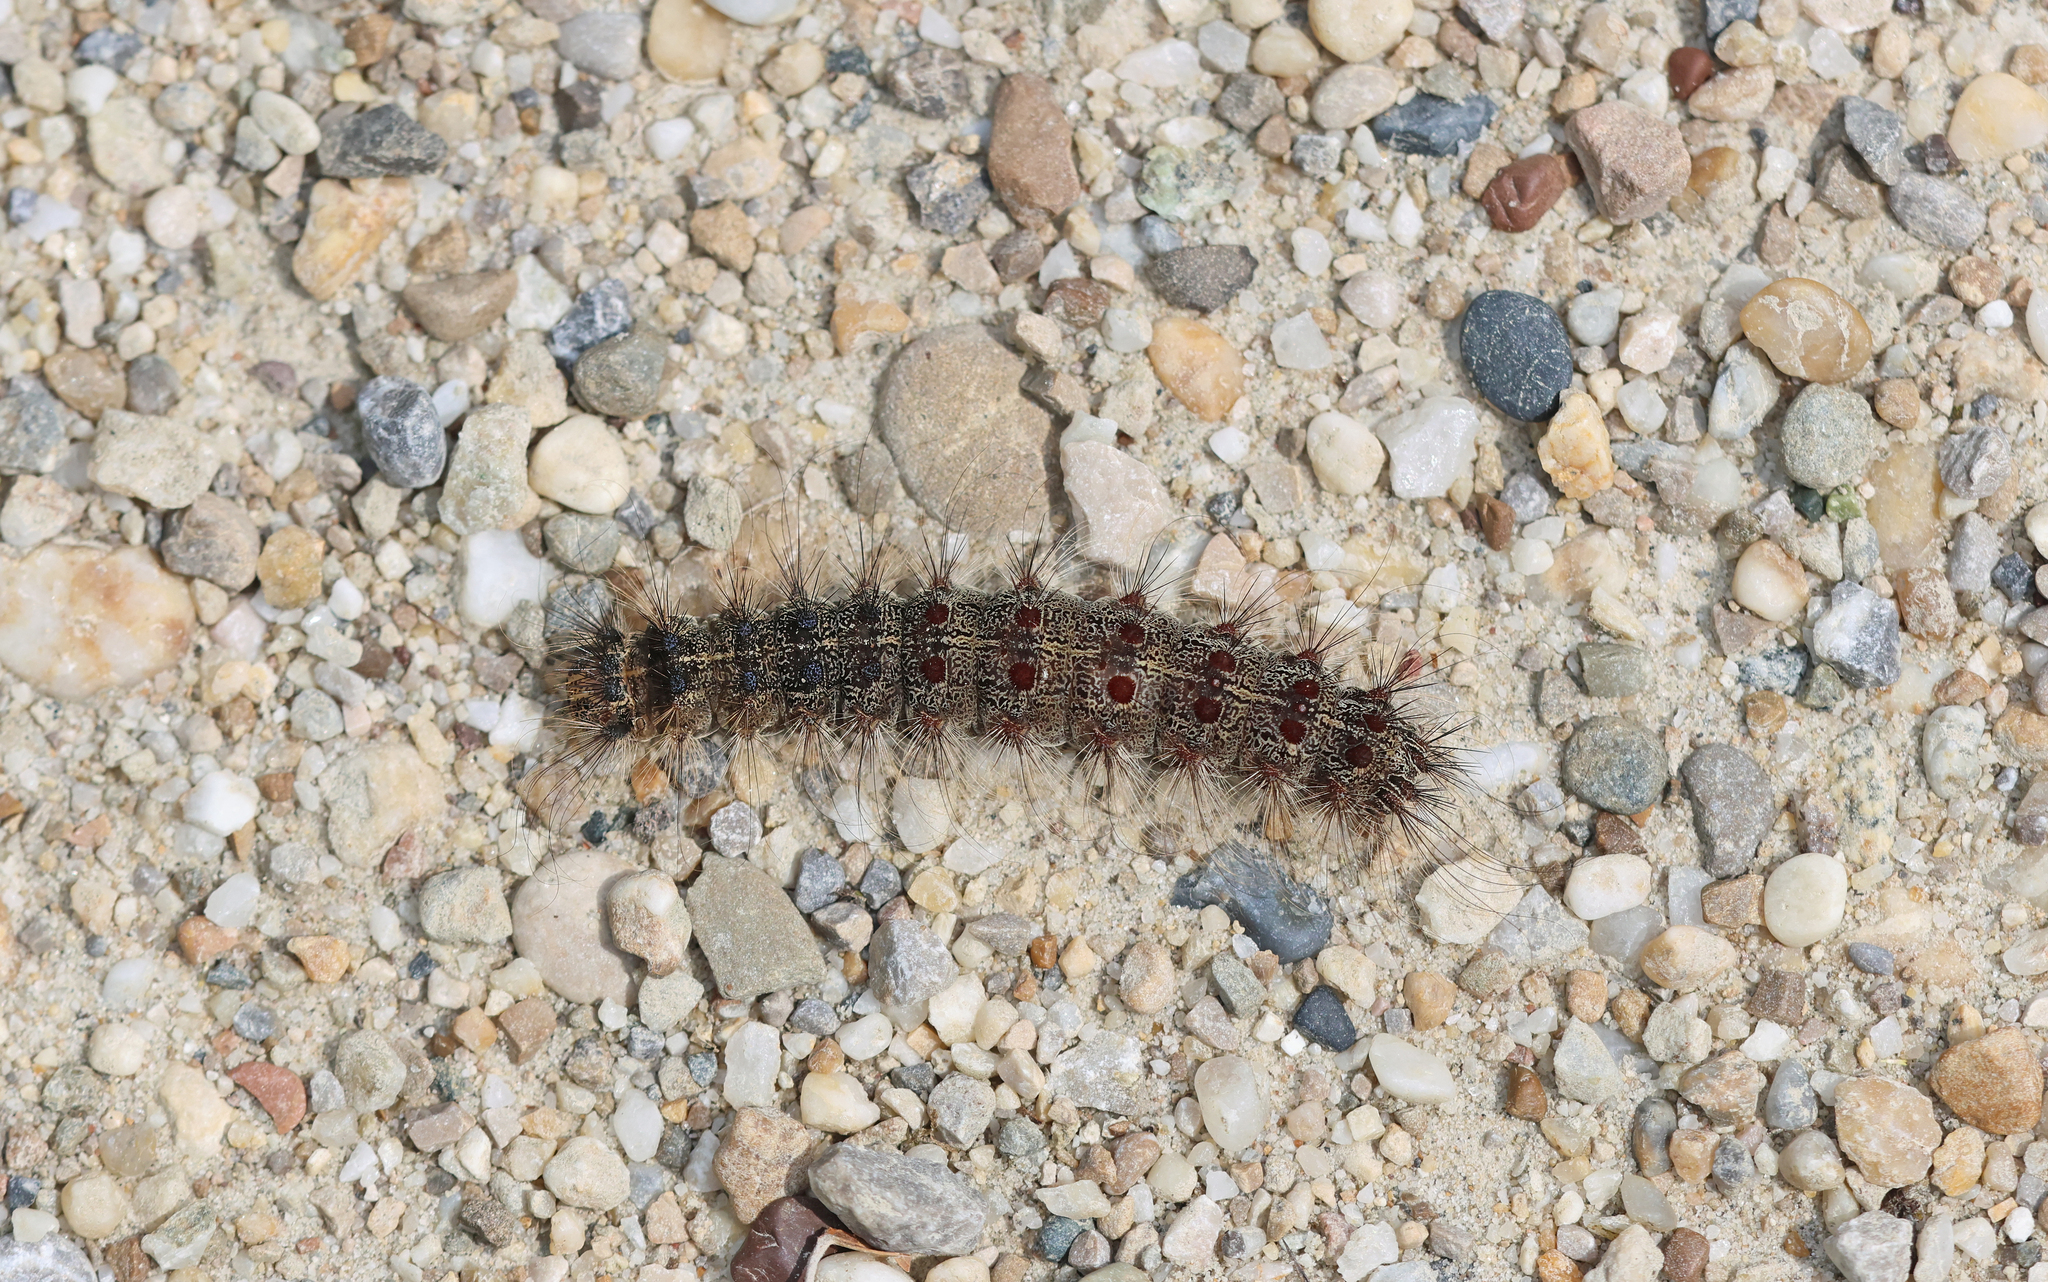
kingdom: Animalia
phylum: Arthropoda
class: Insecta
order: Lepidoptera
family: Erebidae
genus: Lymantria
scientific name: Lymantria dispar
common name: Gypsy moth
